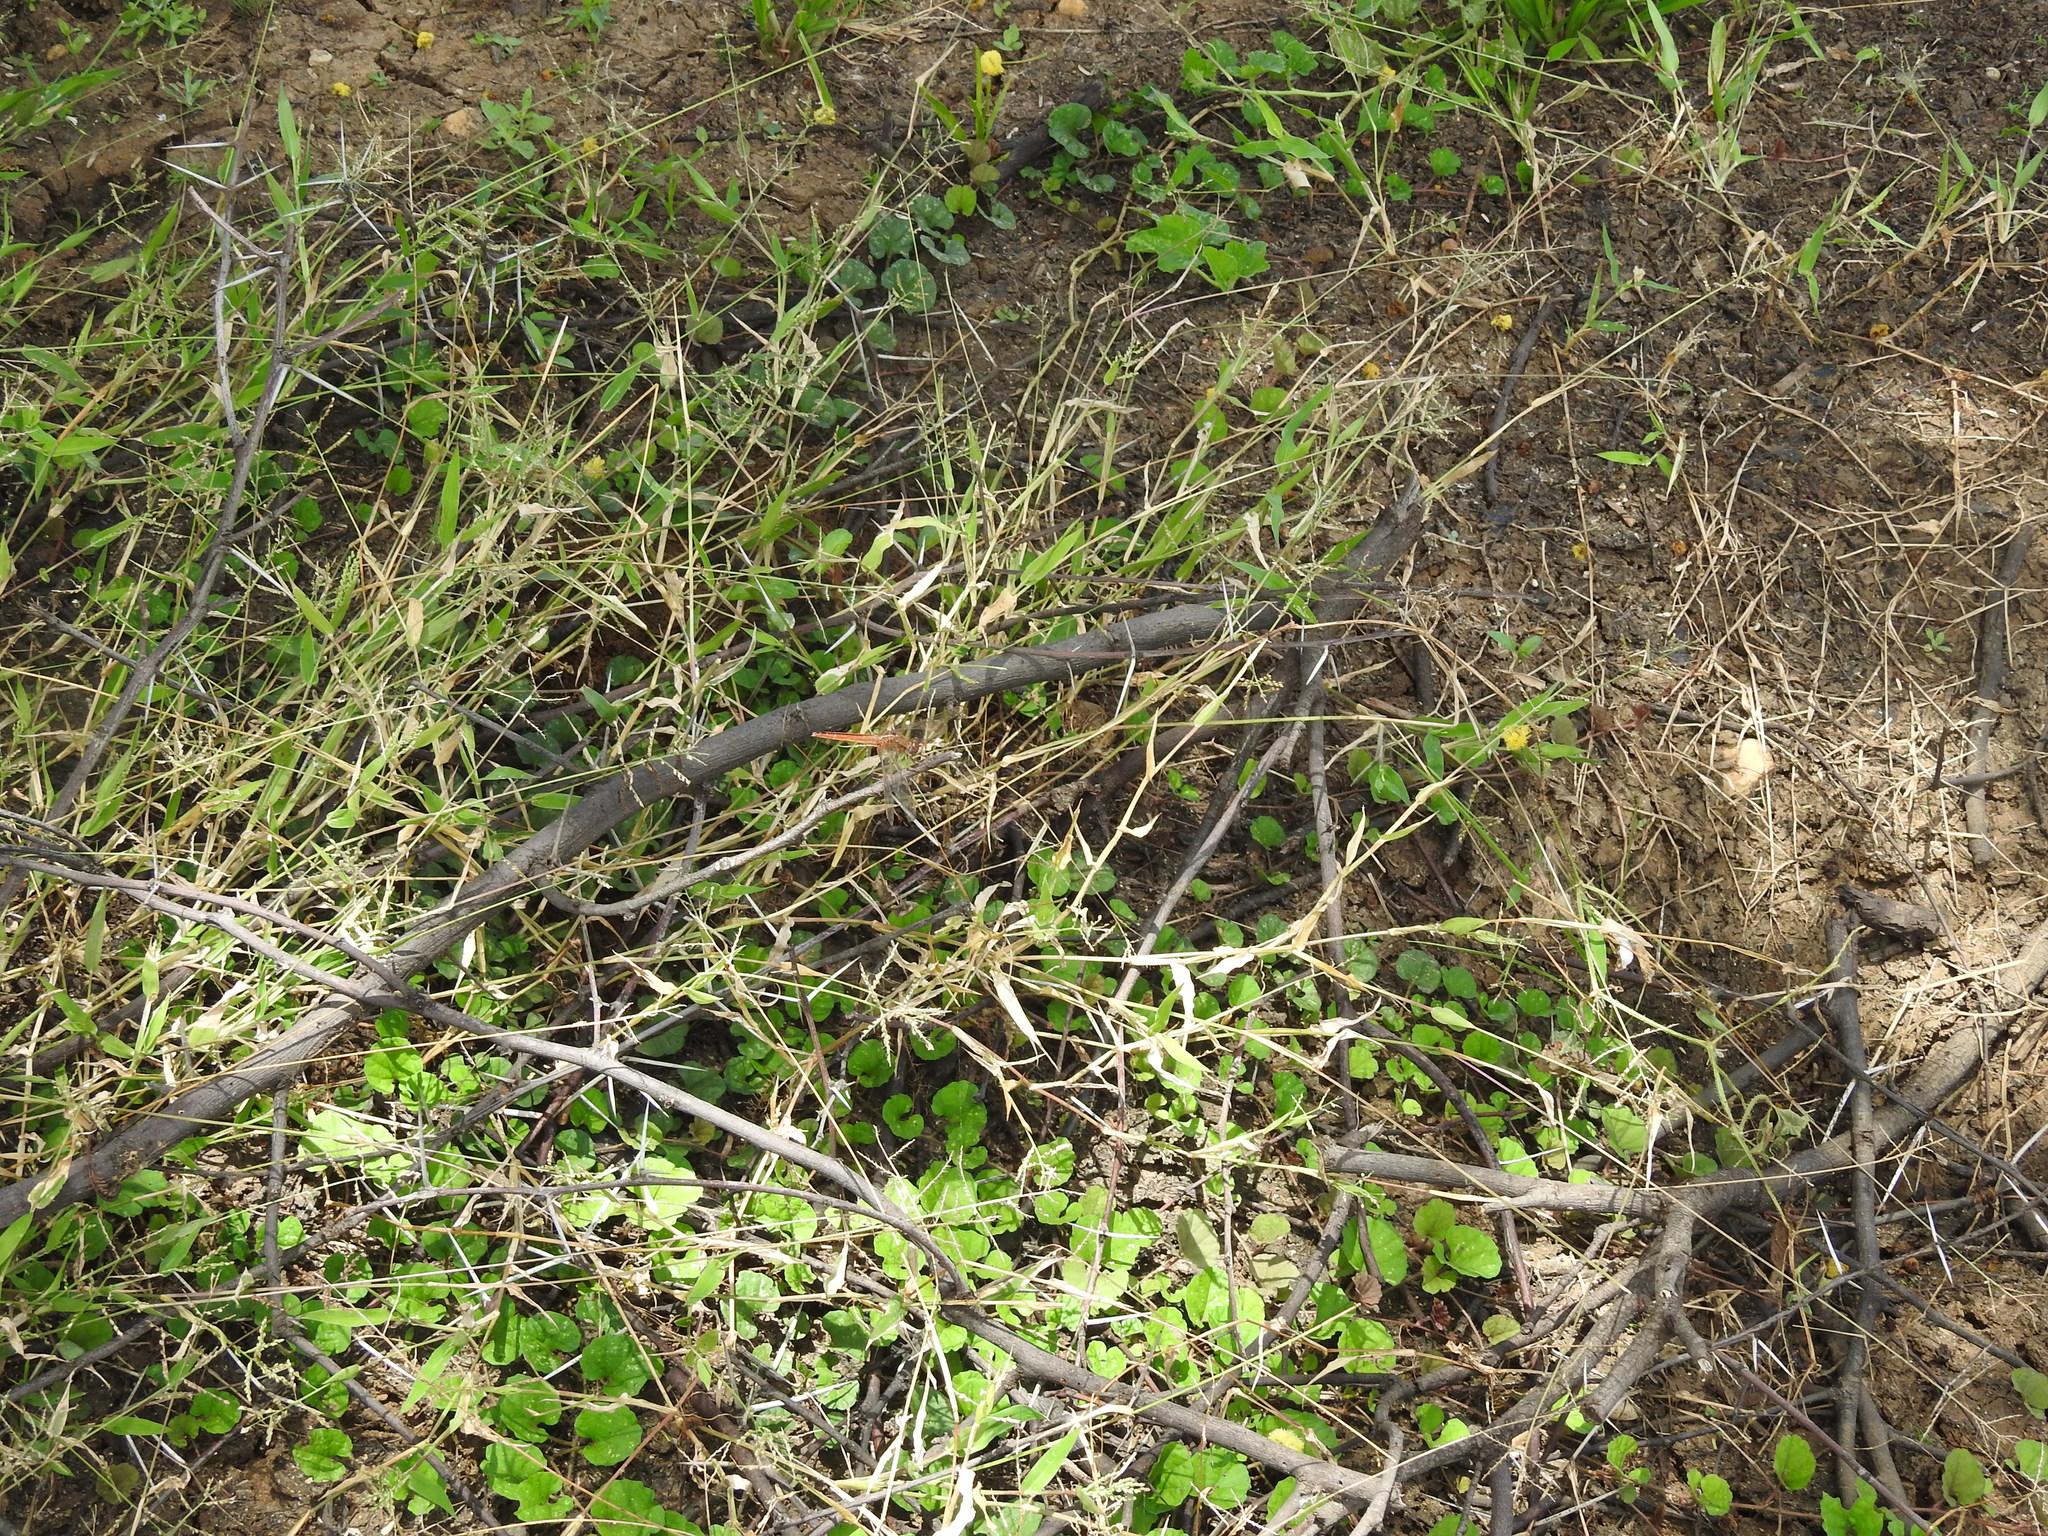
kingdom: Animalia
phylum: Arthropoda
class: Insecta
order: Odonata
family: Libellulidae
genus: Crocothemis
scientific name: Crocothemis servilia
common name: Scarlet skimmer
